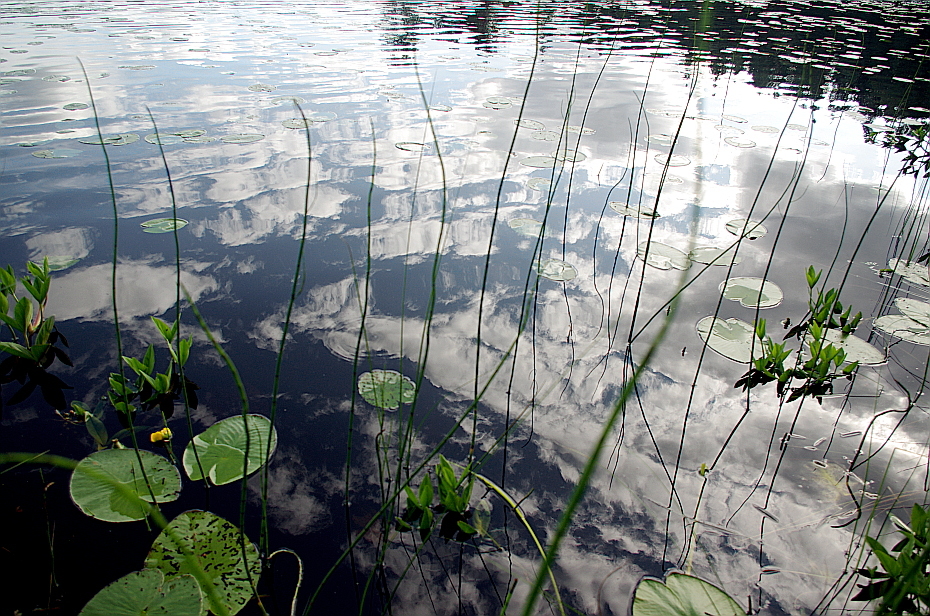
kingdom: Plantae
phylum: Tracheophyta
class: Magnoliopsida
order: Nymphaeales
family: Nymphaeaceae
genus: Nuphar
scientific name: Nuphar lutea
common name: Yellow water-lily
